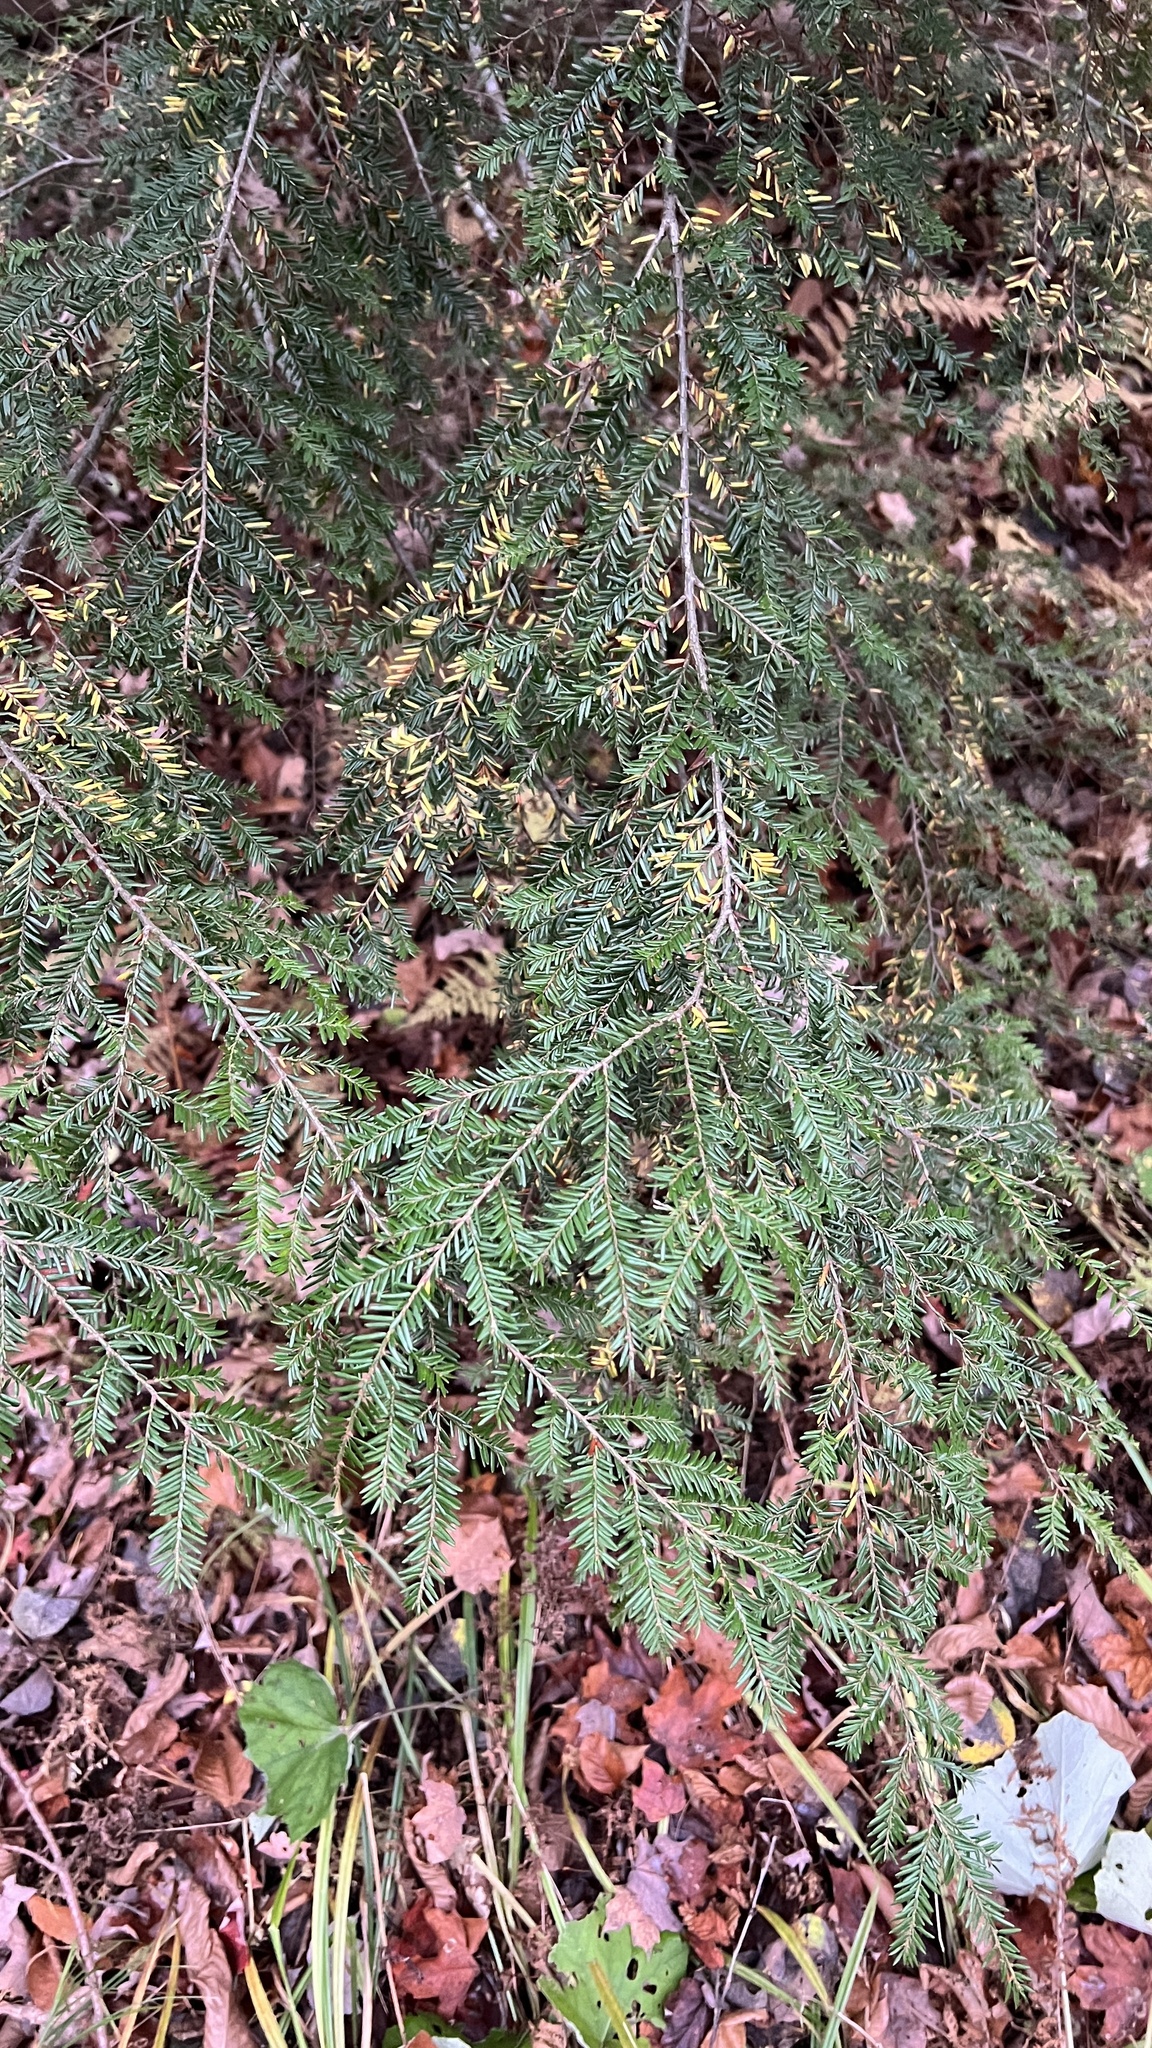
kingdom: Plantae
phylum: Tracheophyta
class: Pinopsida
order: Pinales
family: Pinaceae
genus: Tsuga
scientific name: Tsuga canadensis
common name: Eastern hemlock
